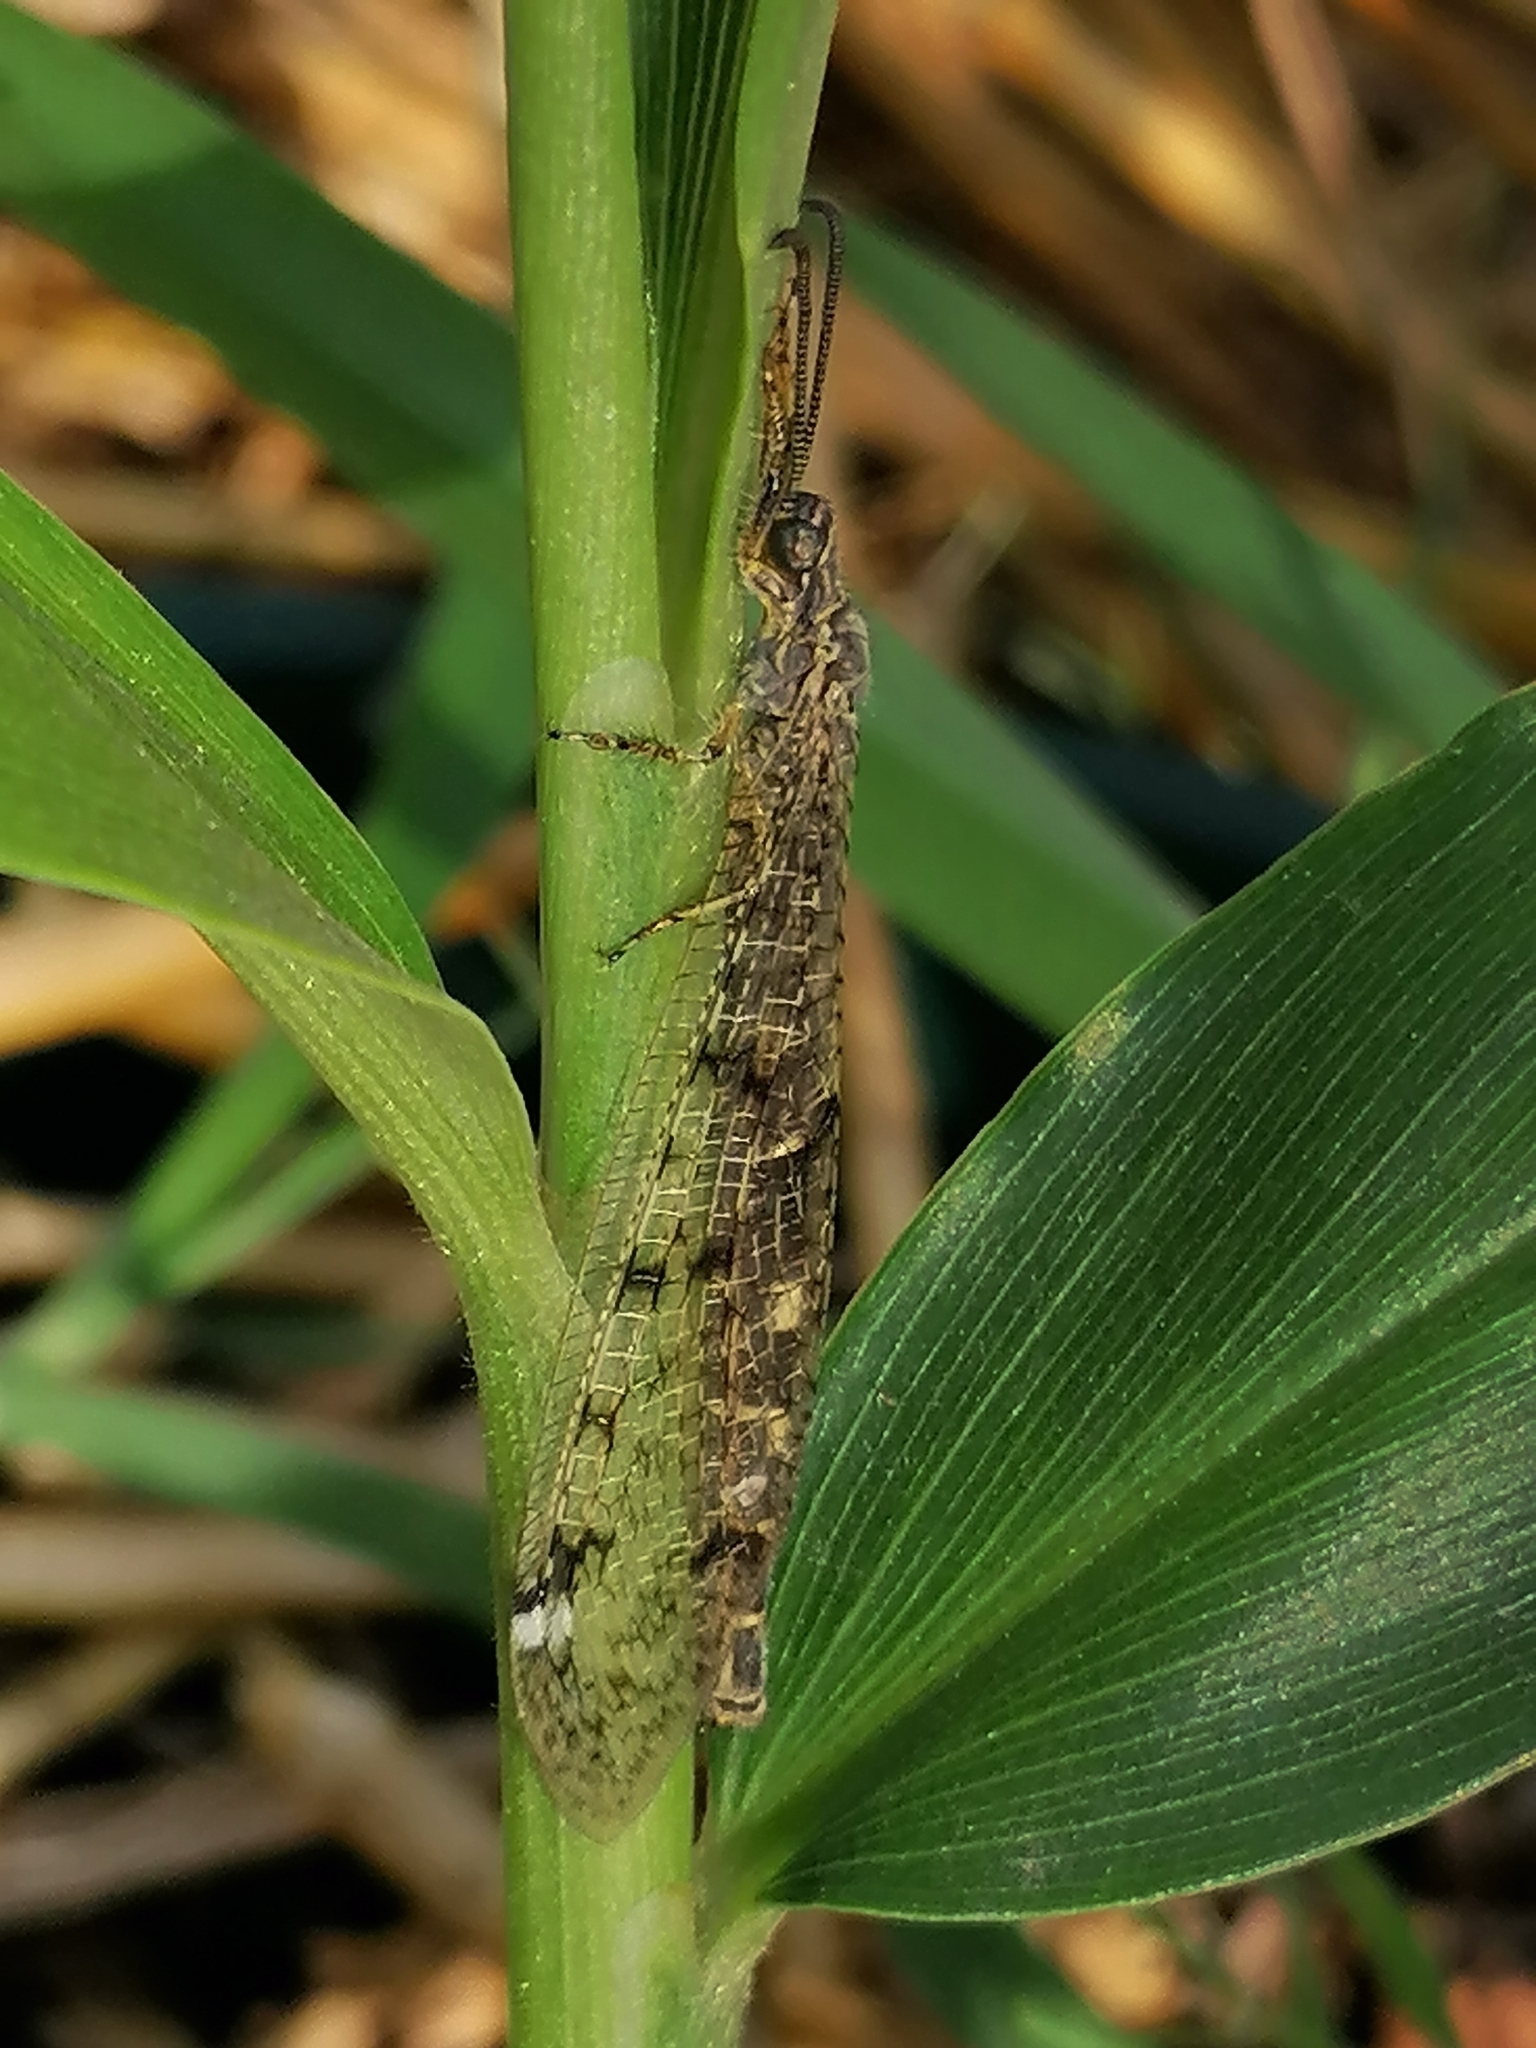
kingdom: Animalia
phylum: Arthropoda
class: Insecta
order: Neuroptera
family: Myrmeleontidae
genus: Distoleon
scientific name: Distoleon tetragrammicus
